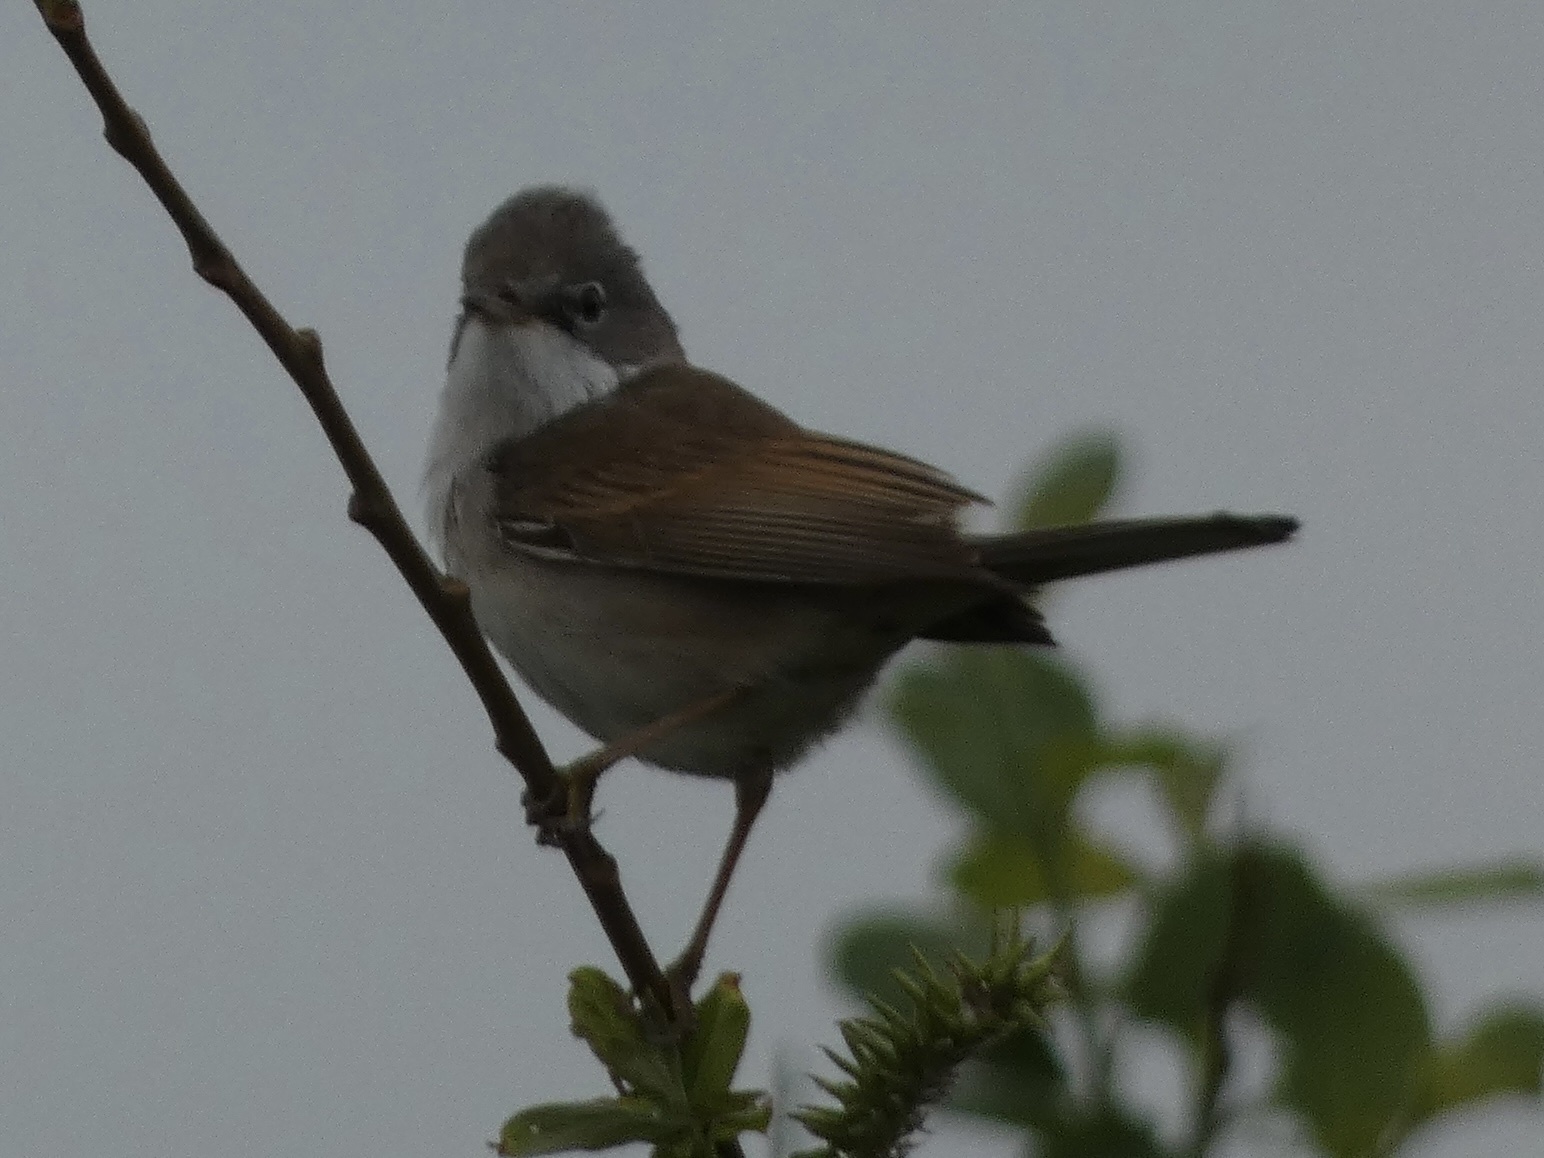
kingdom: Animalia
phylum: Chordata
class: Aves
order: Passeriformes
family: Sylviidae
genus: Sylvia
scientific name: Sylvia communis
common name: Common whitethroat
